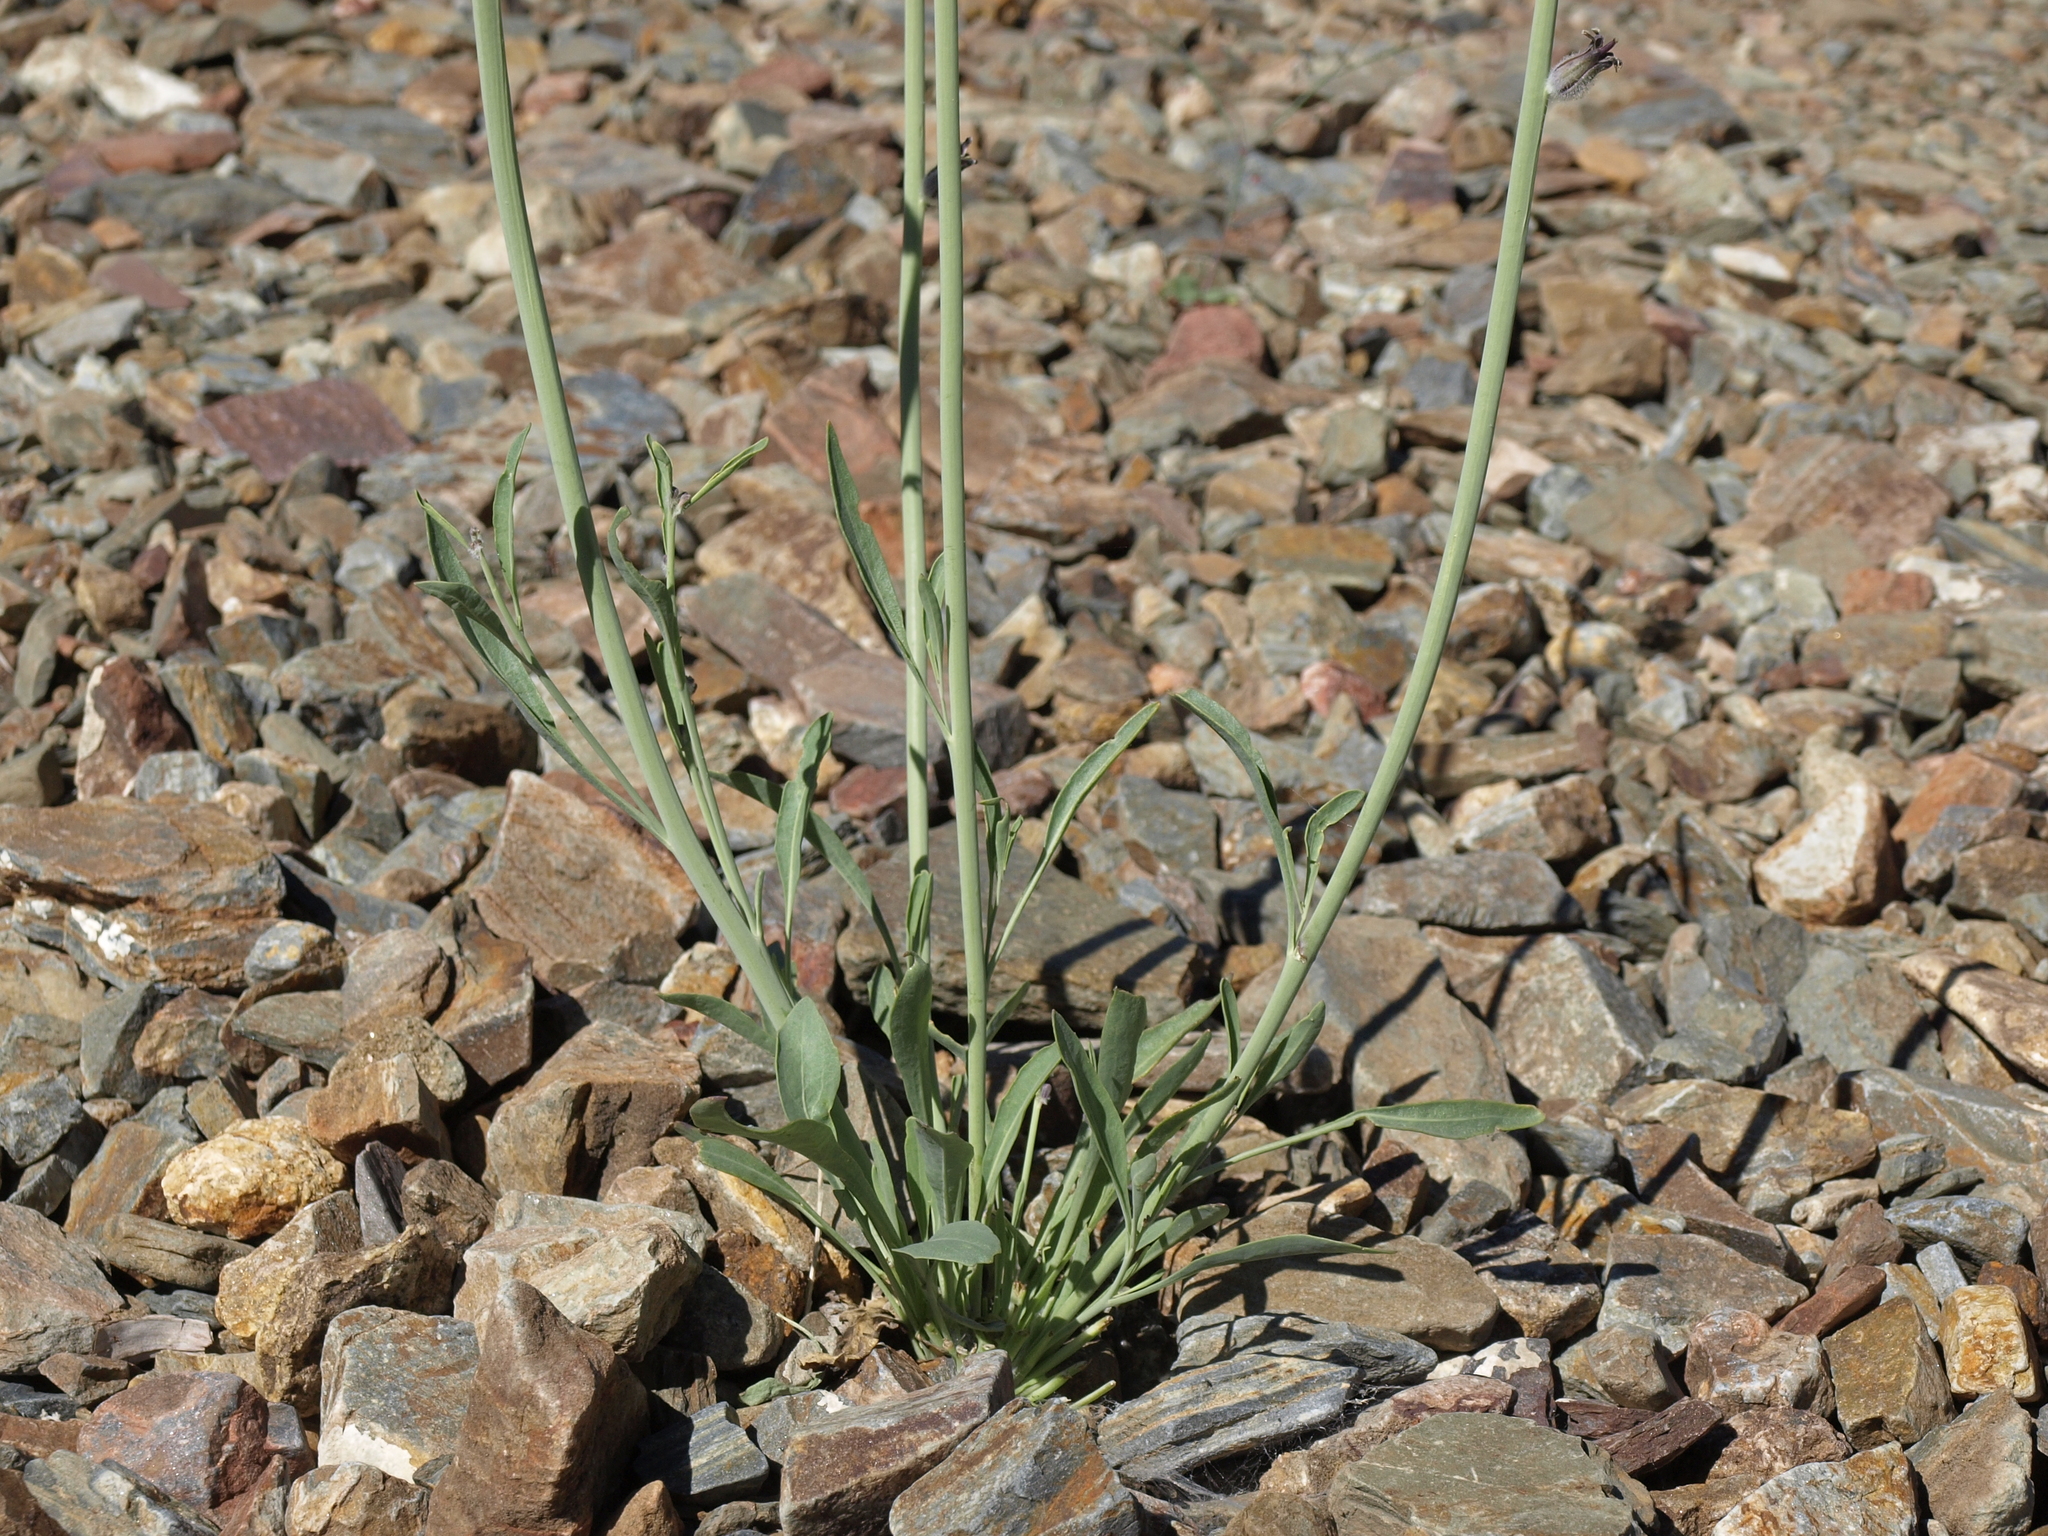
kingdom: Plantae
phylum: Tracheophyta
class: Magnoliopsida
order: Brassicales
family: Brassicaceae
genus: Streptanthus
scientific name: Streptanthus crassicaulis
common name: Thick-stem wild cabbage
